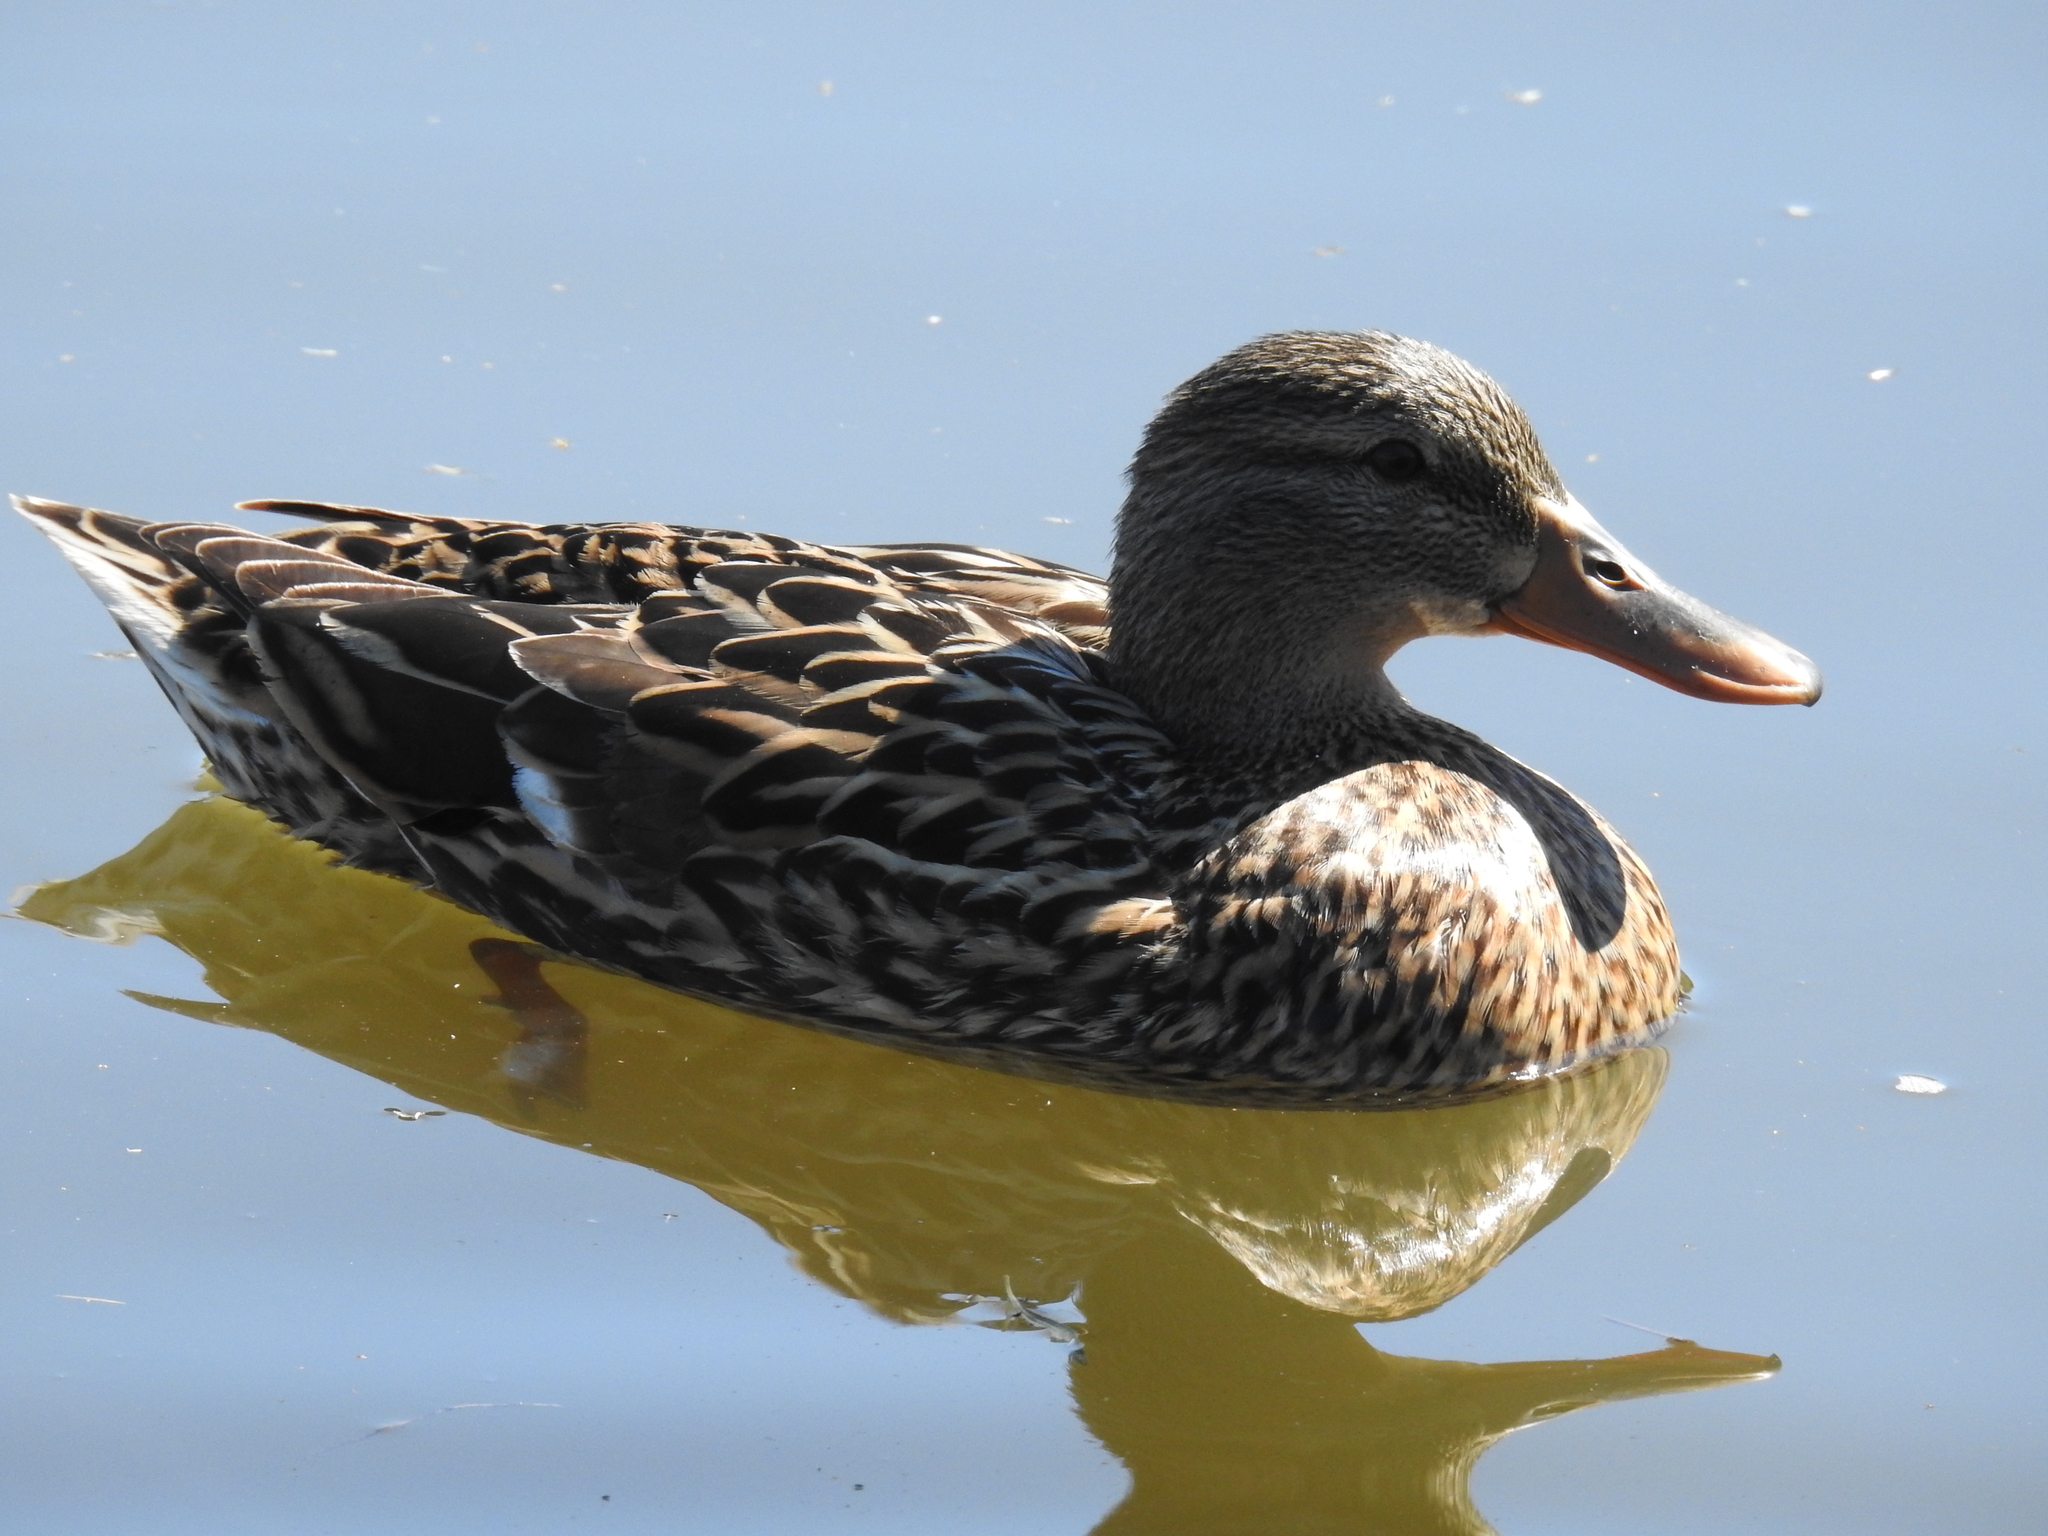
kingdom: Animalia
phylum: Chordata
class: Aves
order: Anseriformes
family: Anatidae
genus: Anas
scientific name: Anas platyrhynchos
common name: Mallard
